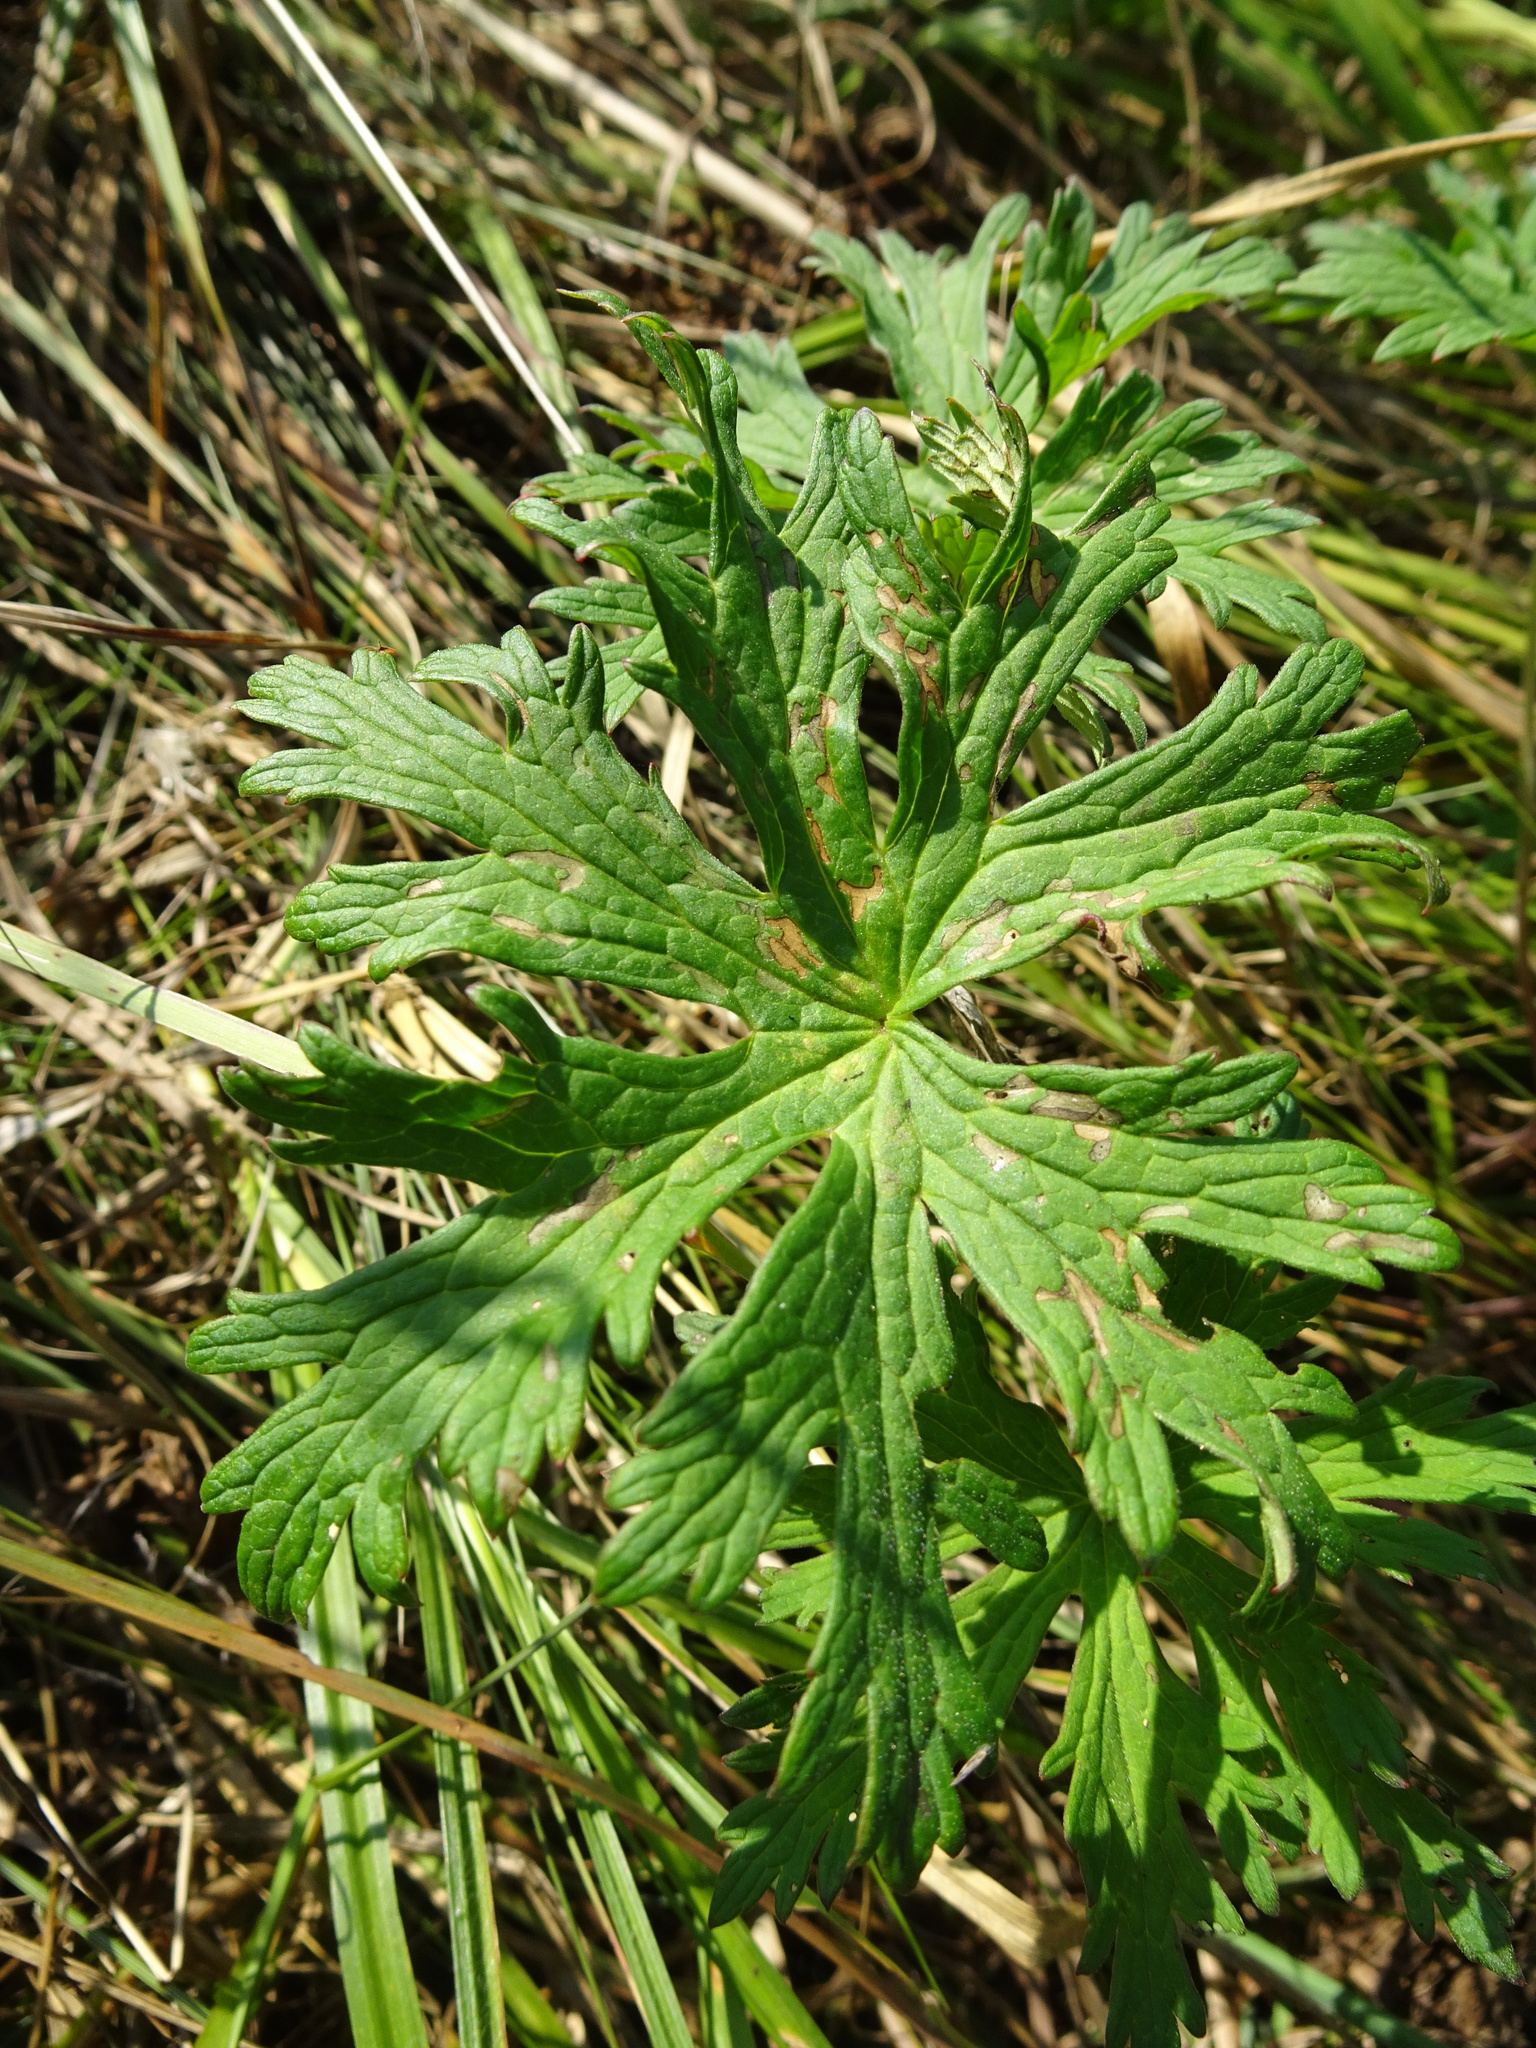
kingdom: Plantae
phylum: Tracheophyta
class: Magnoliopsida
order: Geraniales
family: Geraniaceae
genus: Geranium
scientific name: Geranium pratense
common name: Meadow crane's-bill
